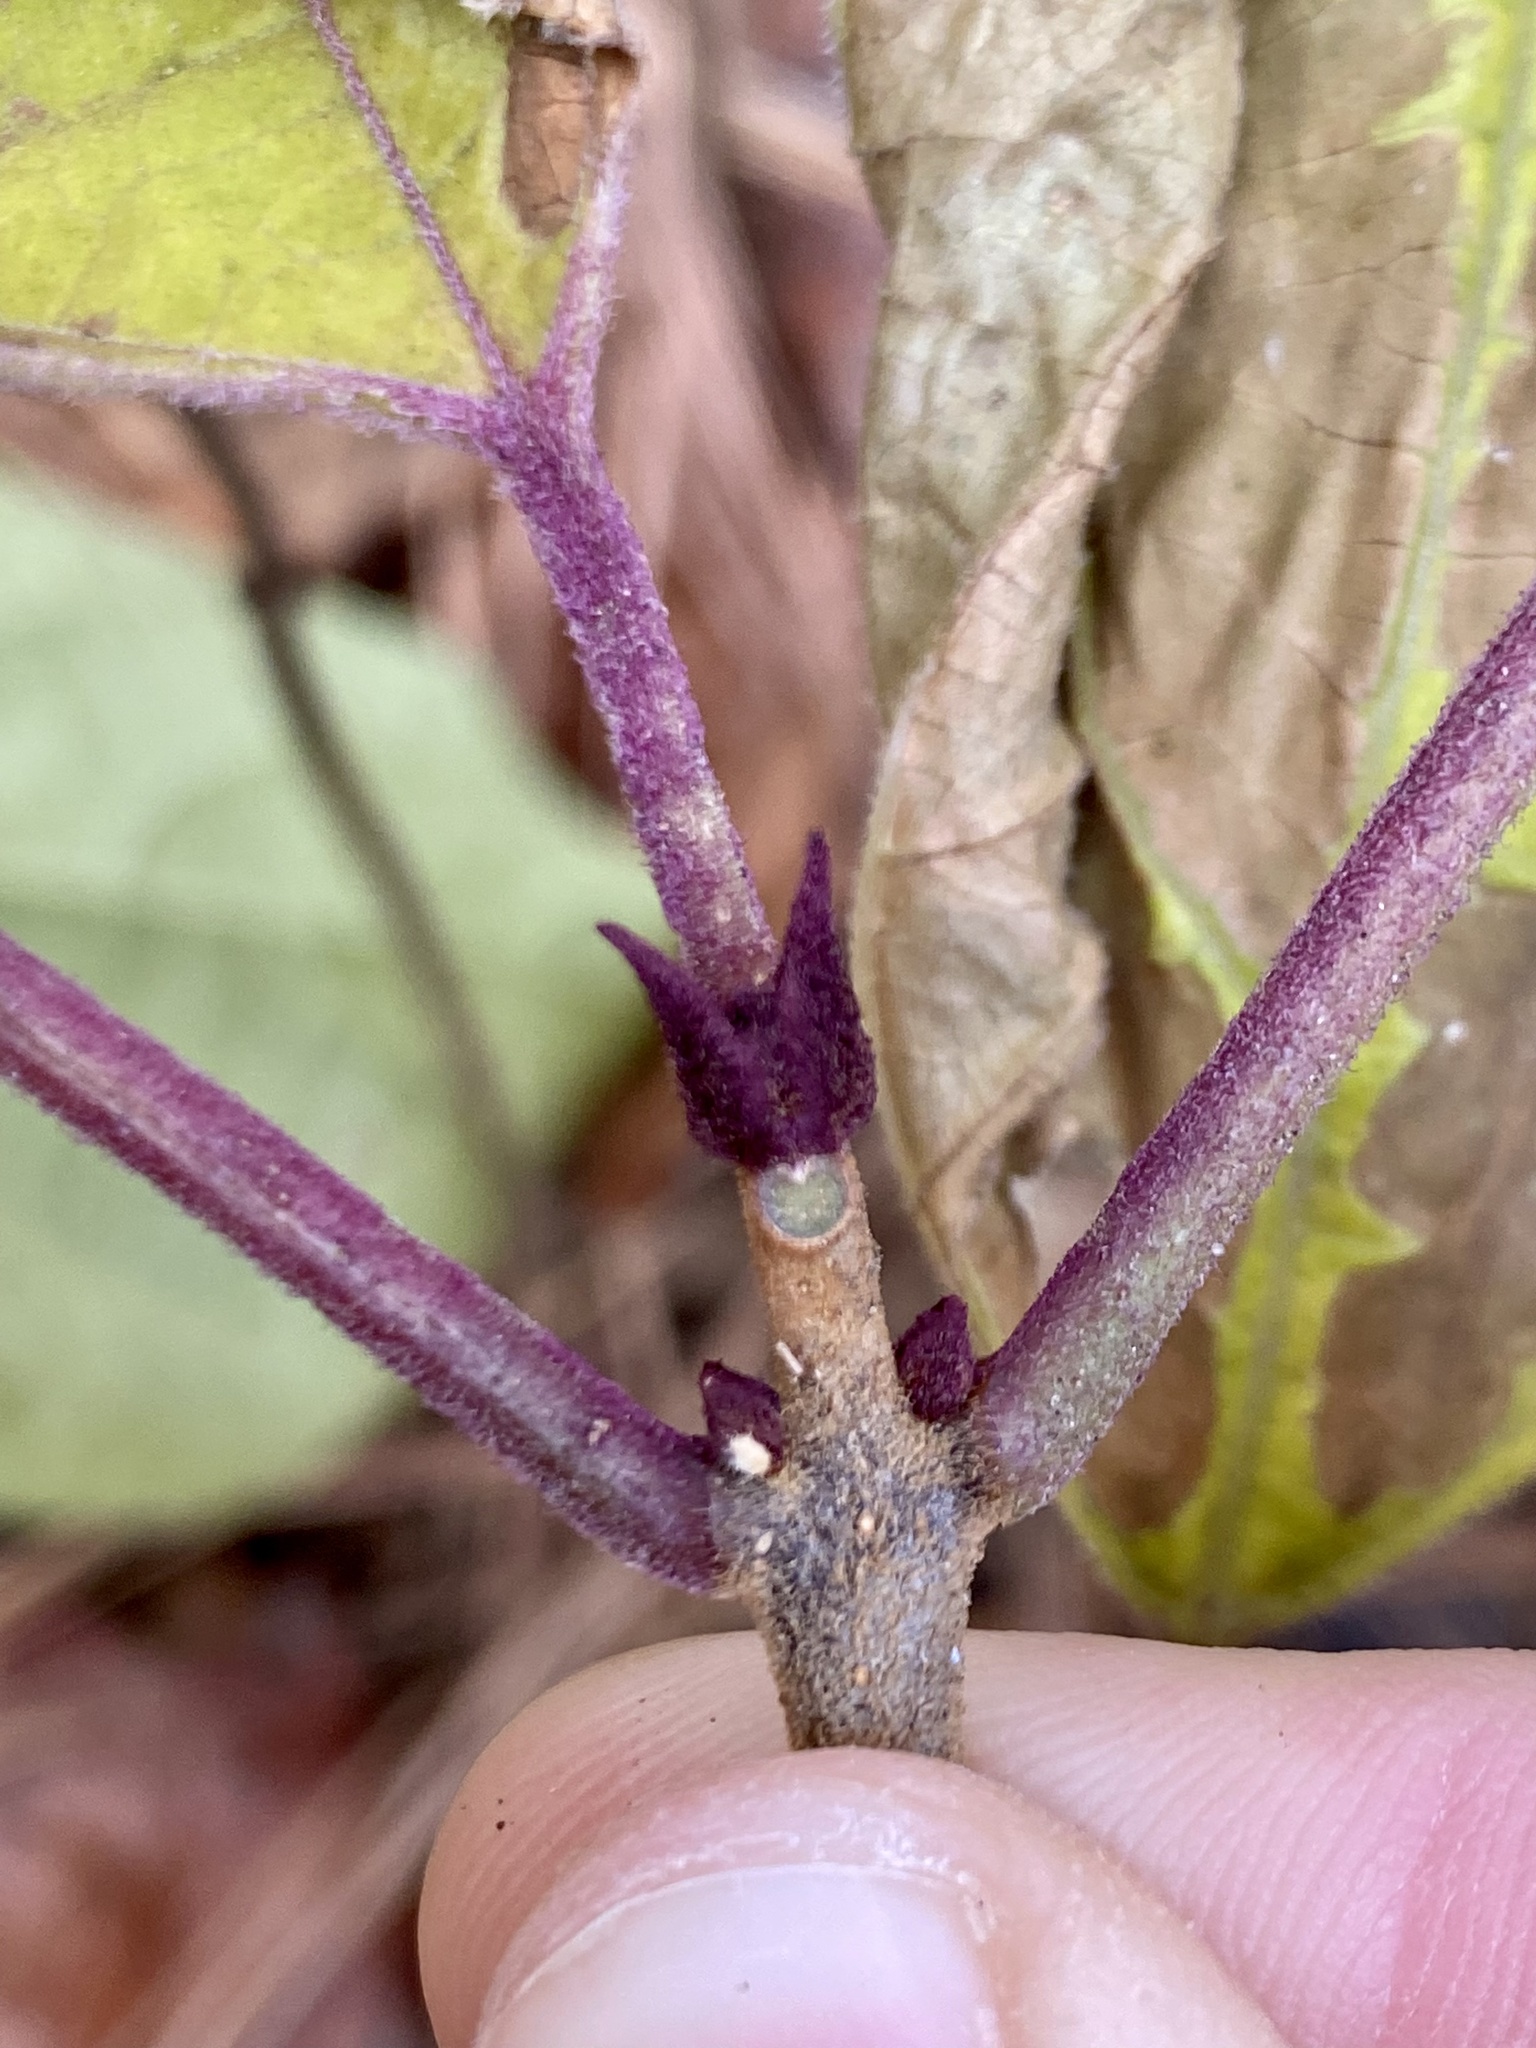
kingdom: Plantae
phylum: Tracheophyta
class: Magnoliopsida
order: Lamiales
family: Lamiaceae
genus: Clerodendrum
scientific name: Clerodendrum trichotomum
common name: Harlequin glorybower
